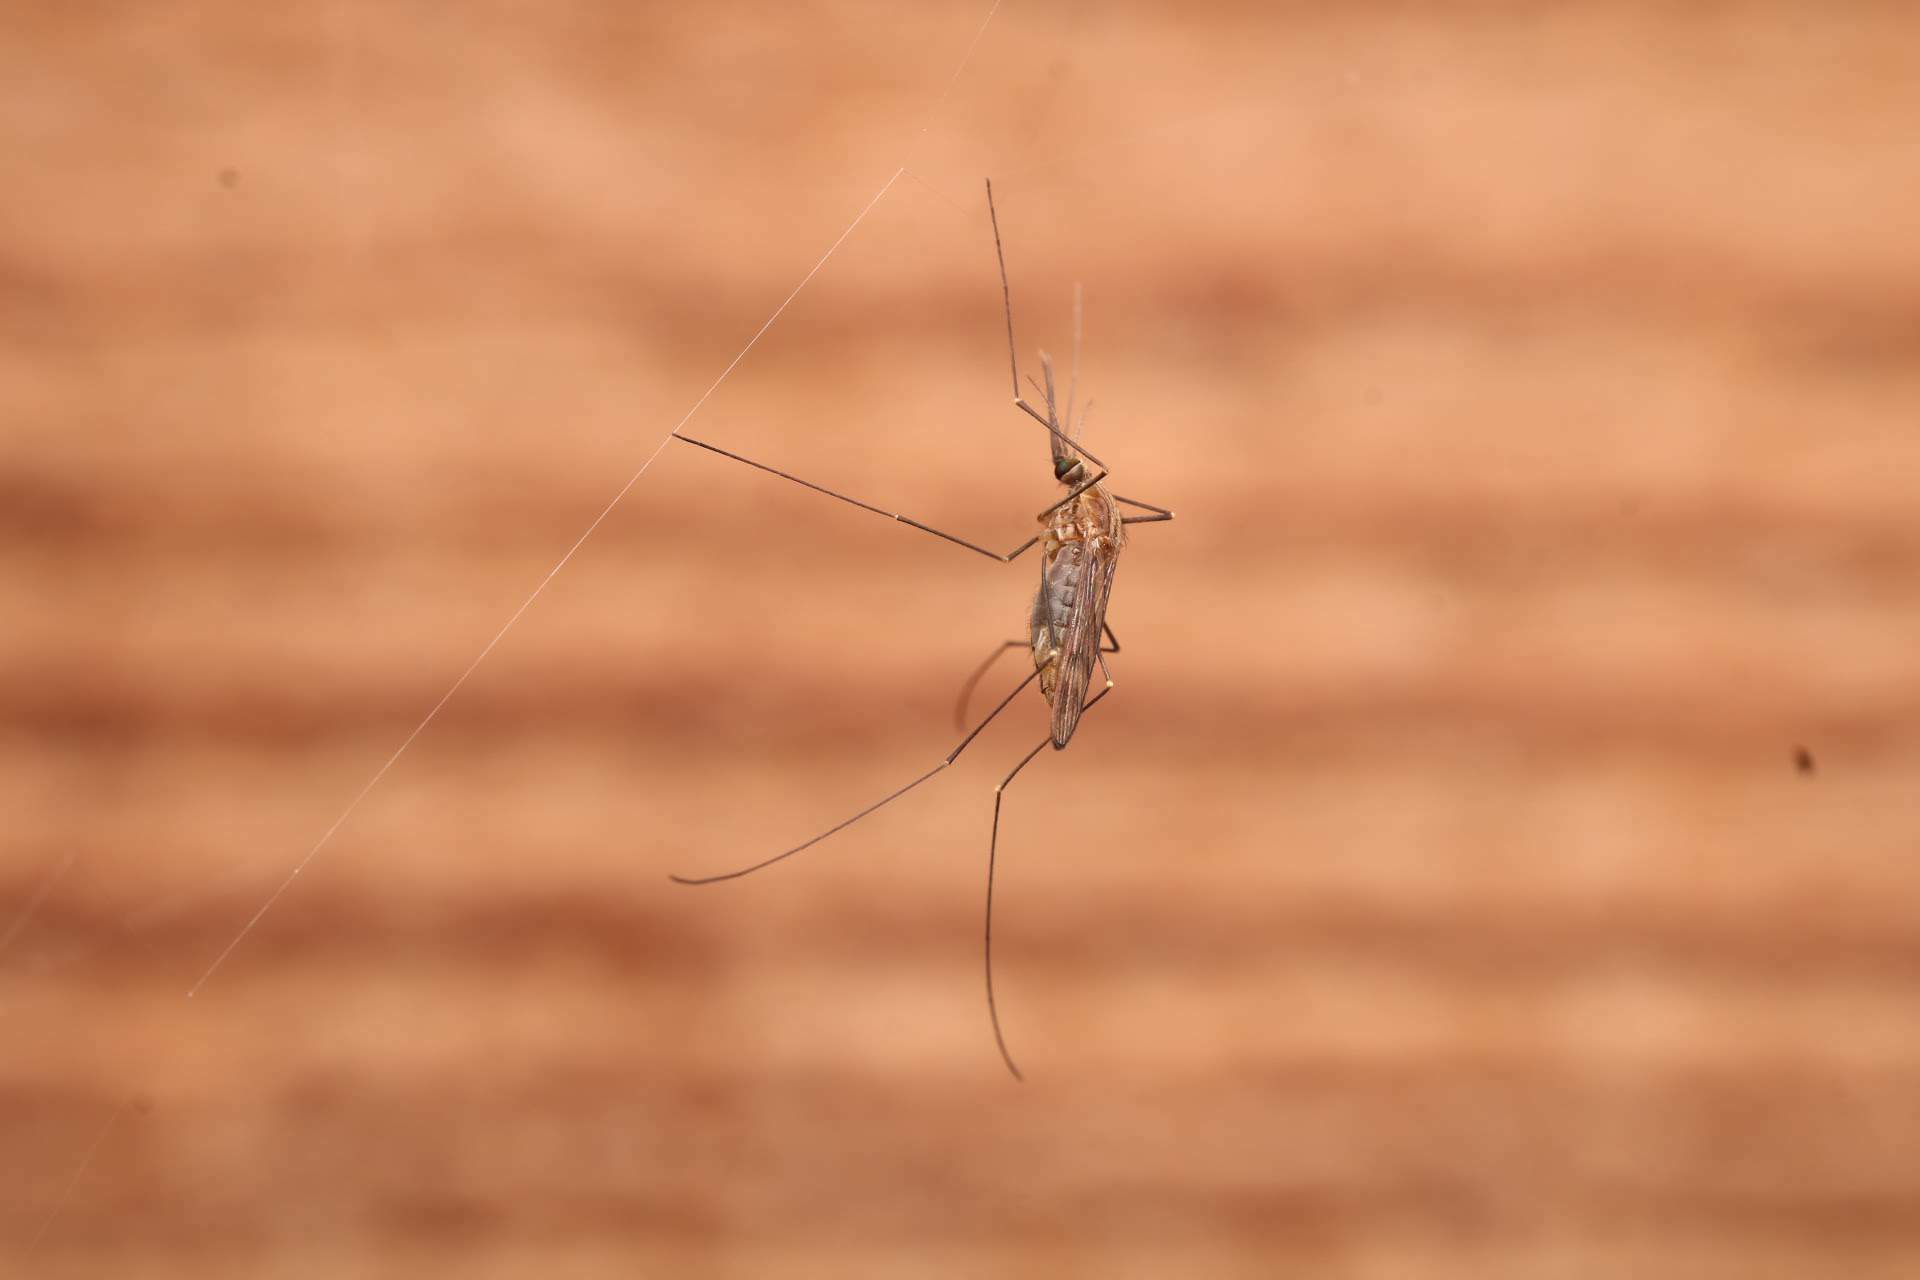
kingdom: Animalia
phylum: Arthropoda
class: Insecta
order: Diptera
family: Culicidae
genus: Anopheles
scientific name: Anopheles
